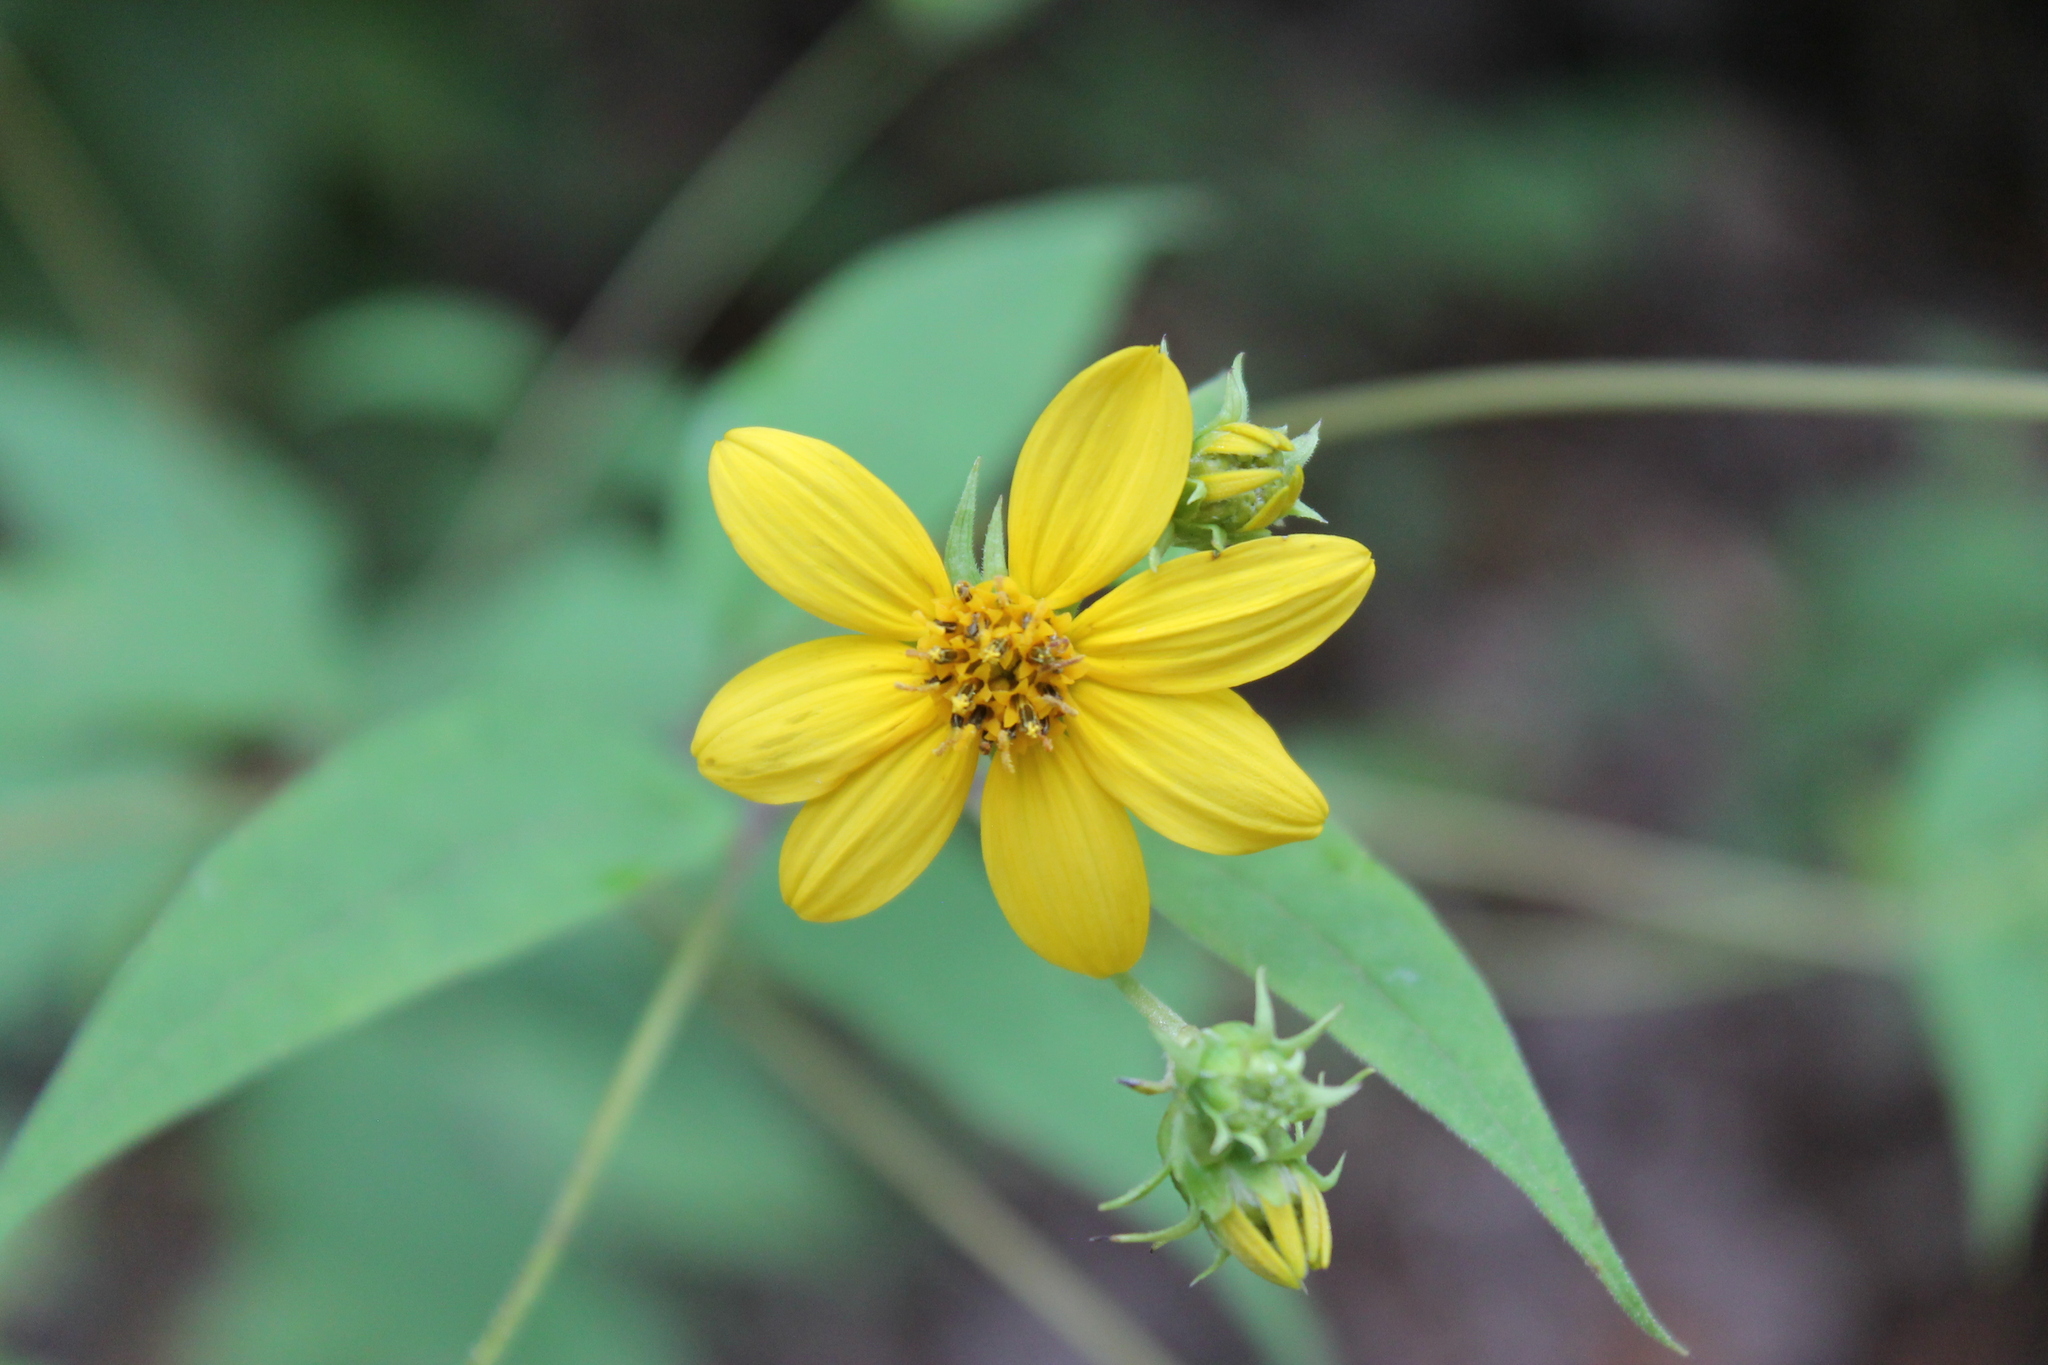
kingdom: Plantae
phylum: Tracheophyta
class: Magnoliopsida
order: Asterales
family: Asteraceae
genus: Helianthus
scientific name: Helianthus microcephalus
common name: Woodland sunflower
